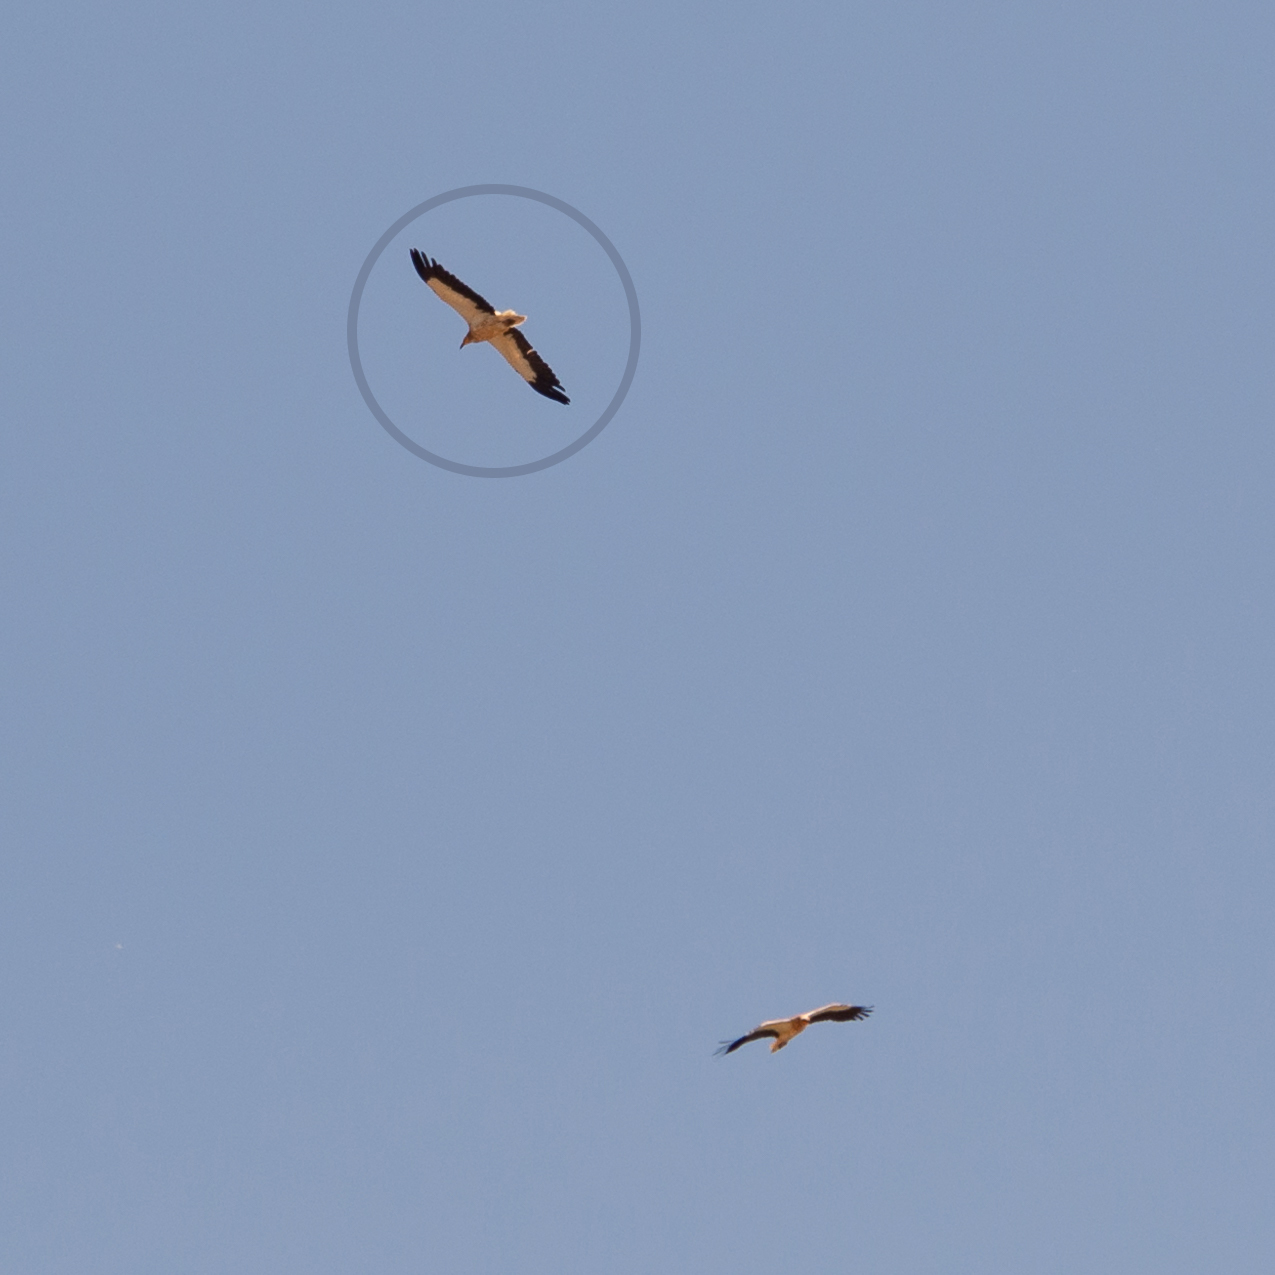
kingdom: Animalia
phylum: Chordata
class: Aves
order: Accipitriformes
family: Accipitridae
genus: Neophron
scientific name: Neophron percnopterus
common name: Egyptian vulture
